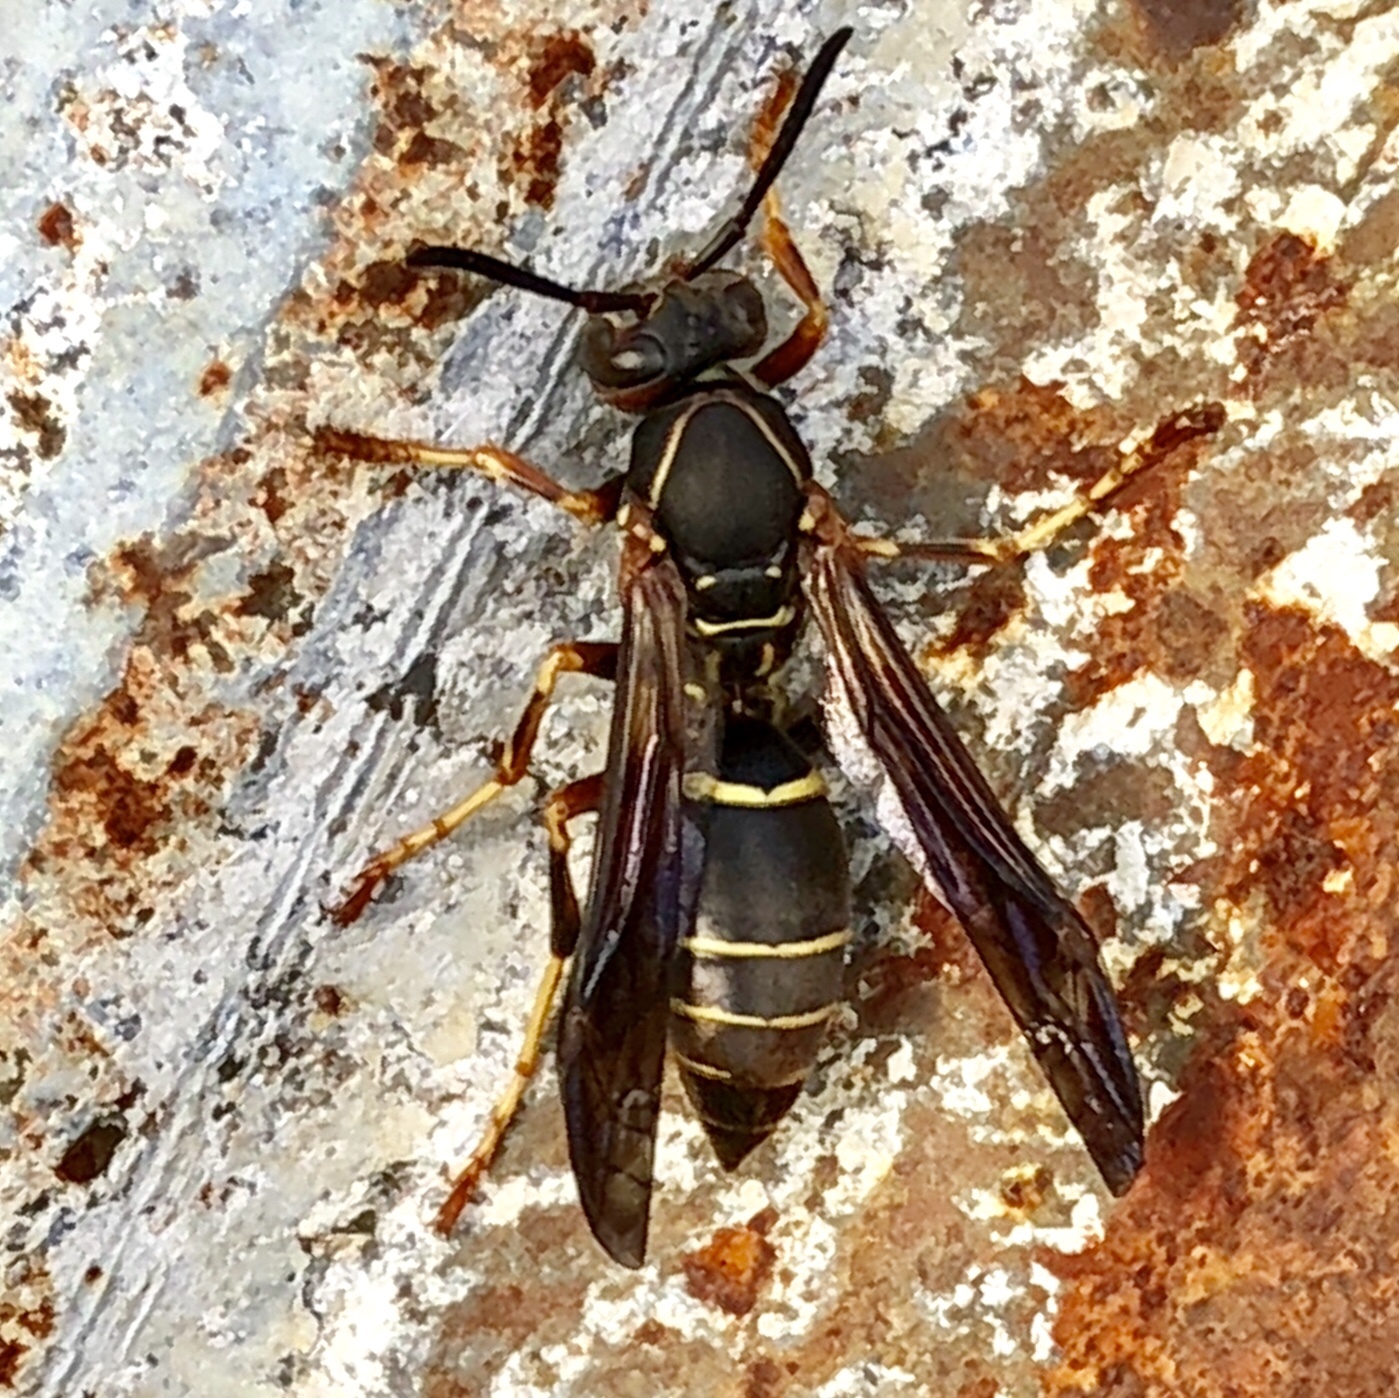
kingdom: Animalia
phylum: Arthropoda
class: Insecta
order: Hymenoptera
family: Eumenidae
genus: Polistes
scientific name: Polistes fuscatus
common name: Dark paper wasp
